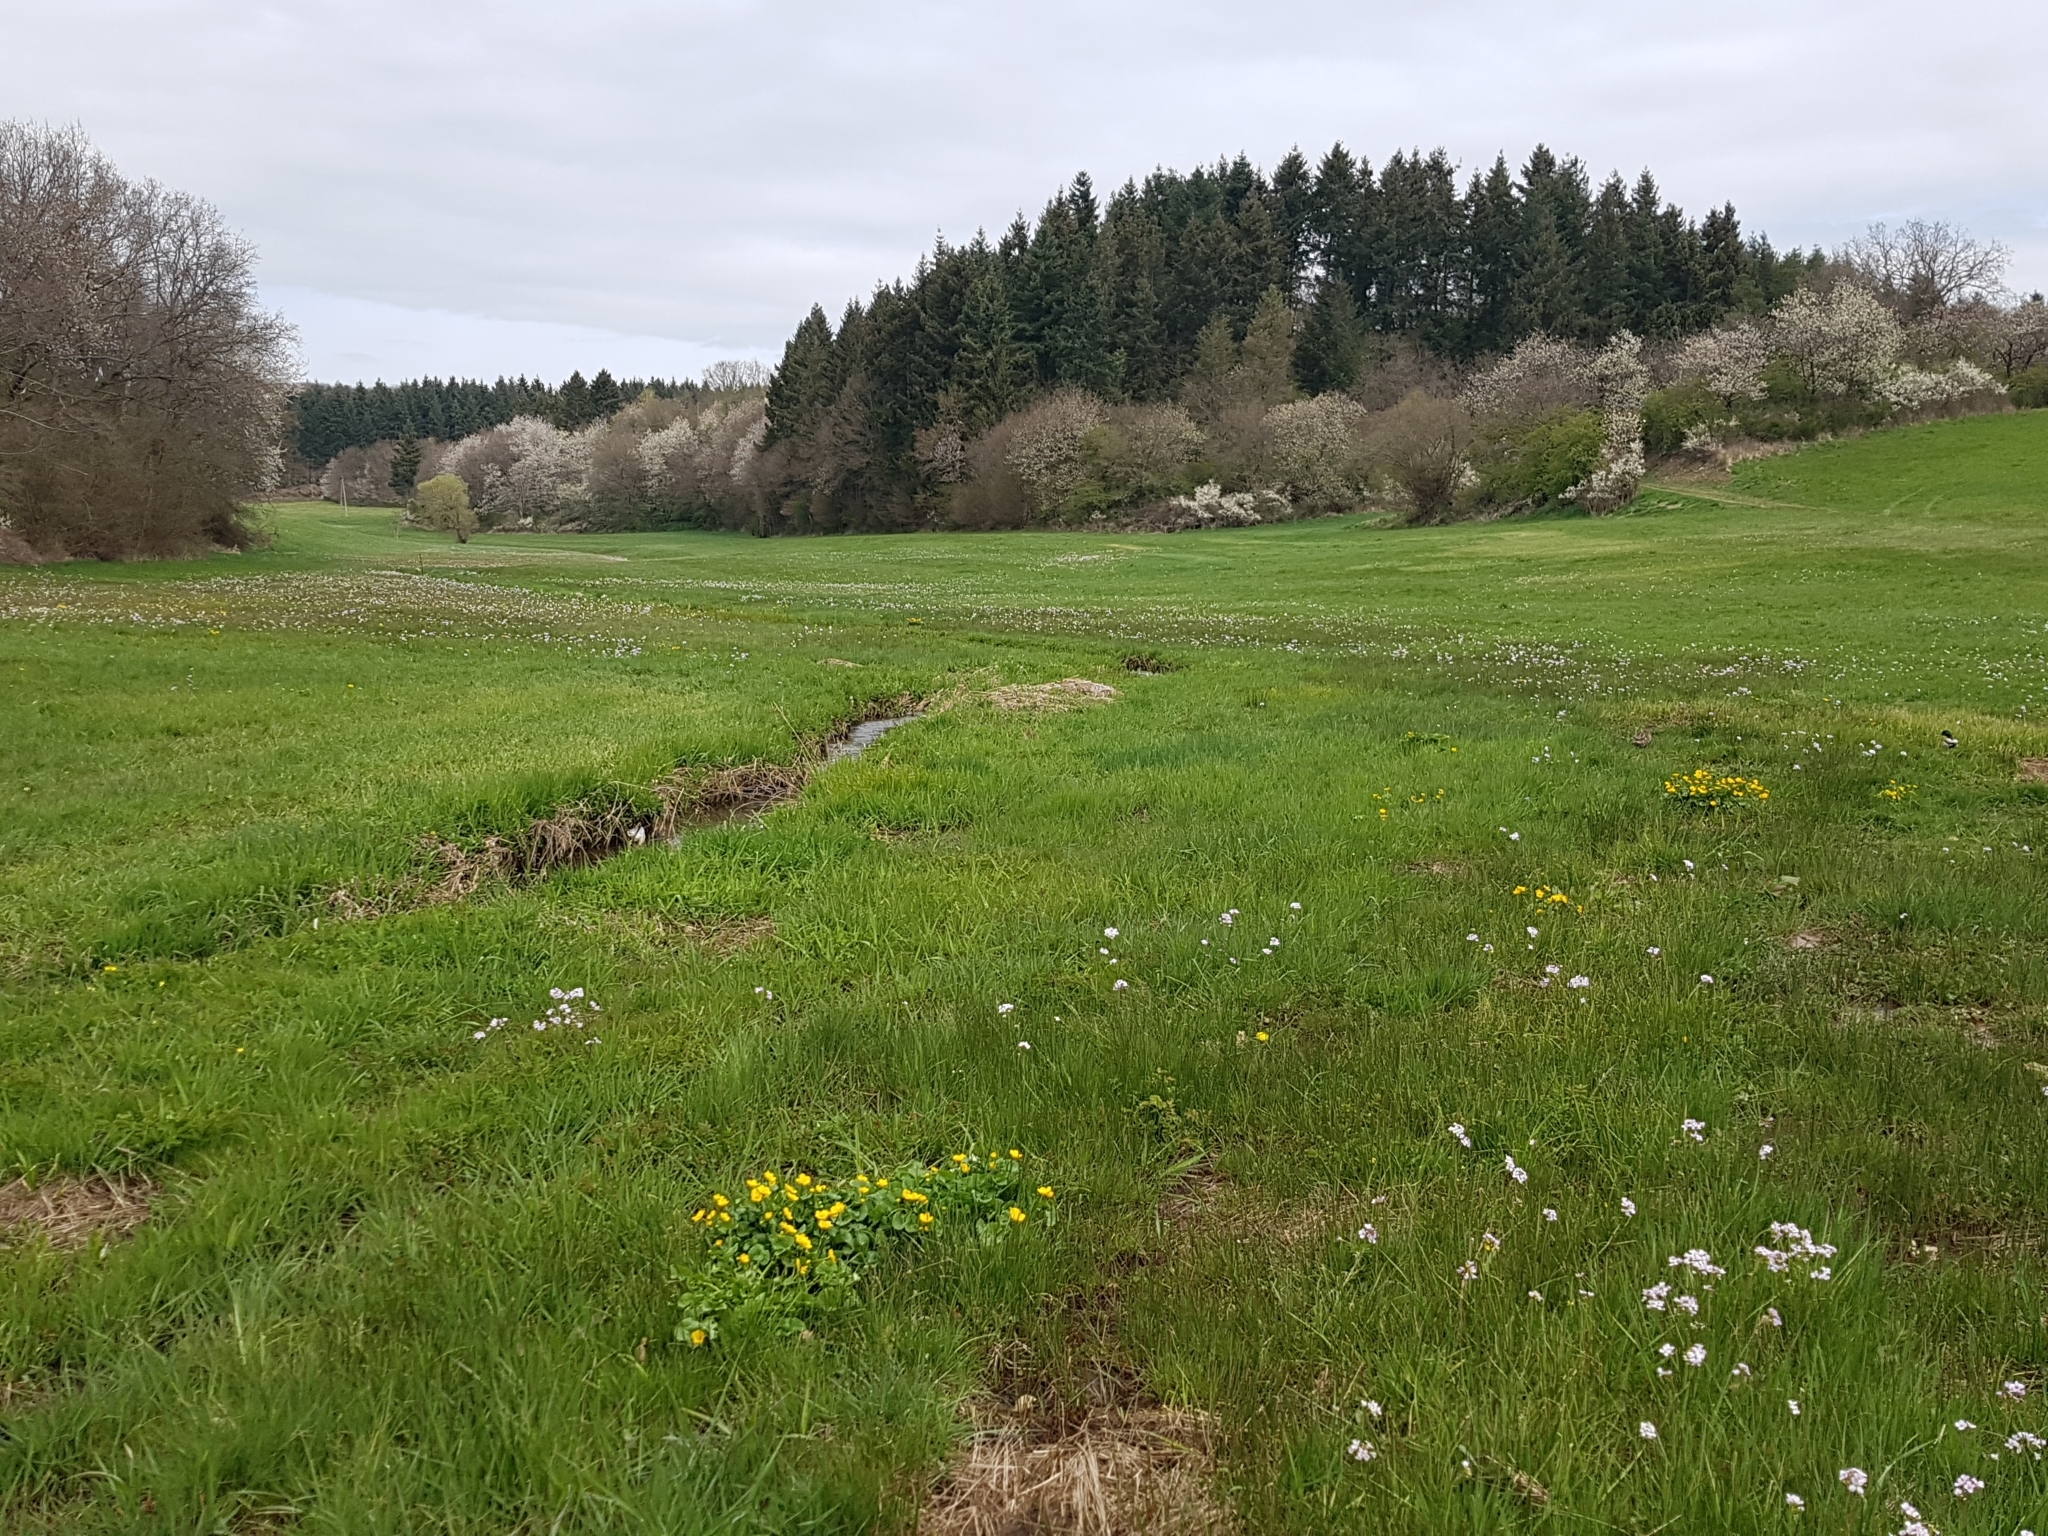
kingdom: Plantae
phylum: Tracheophyta
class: Magnoliopsida
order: Ranunculales
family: Ranunculaceae
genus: Caltha
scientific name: Caltha palustris
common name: Marsh marigold
